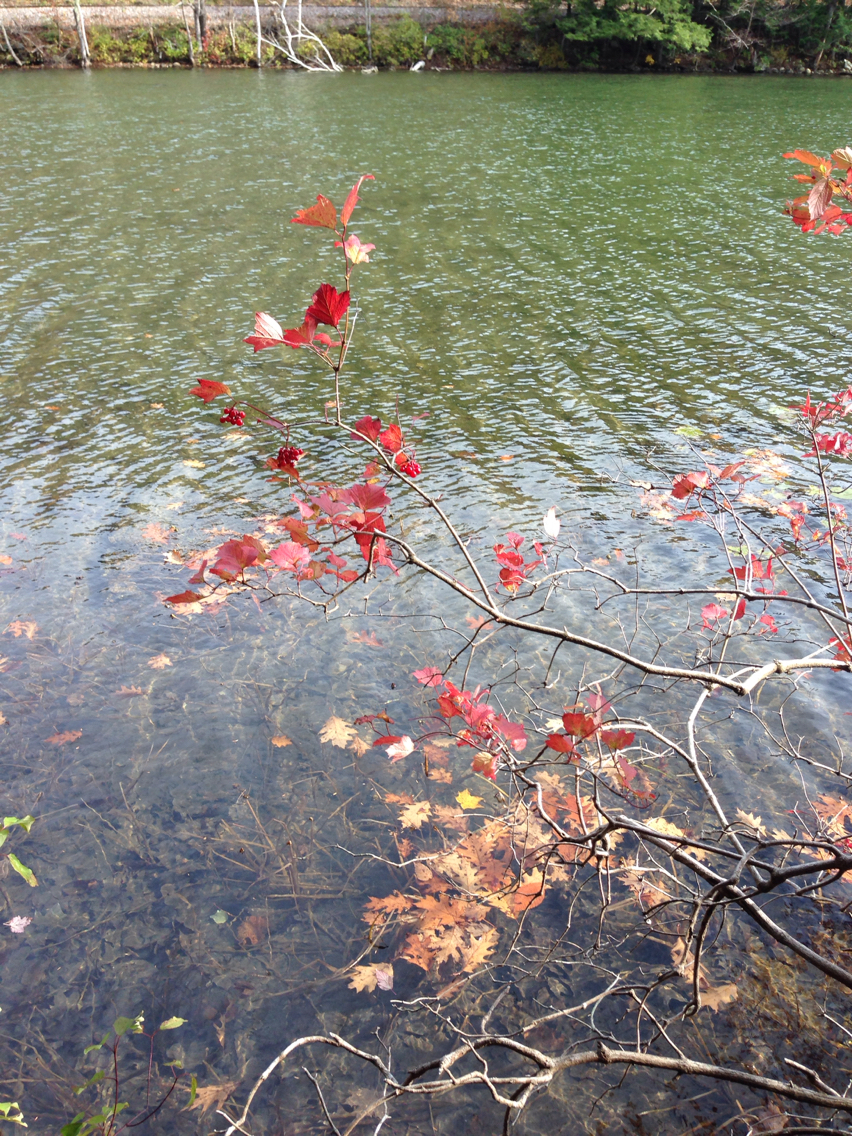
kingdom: Plantae
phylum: Tracheophyta
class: Magnoliopsida
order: Dipsacales
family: Viburnaceae
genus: Viburnum
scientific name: Viburnum acerifolium
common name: Dockmackie
